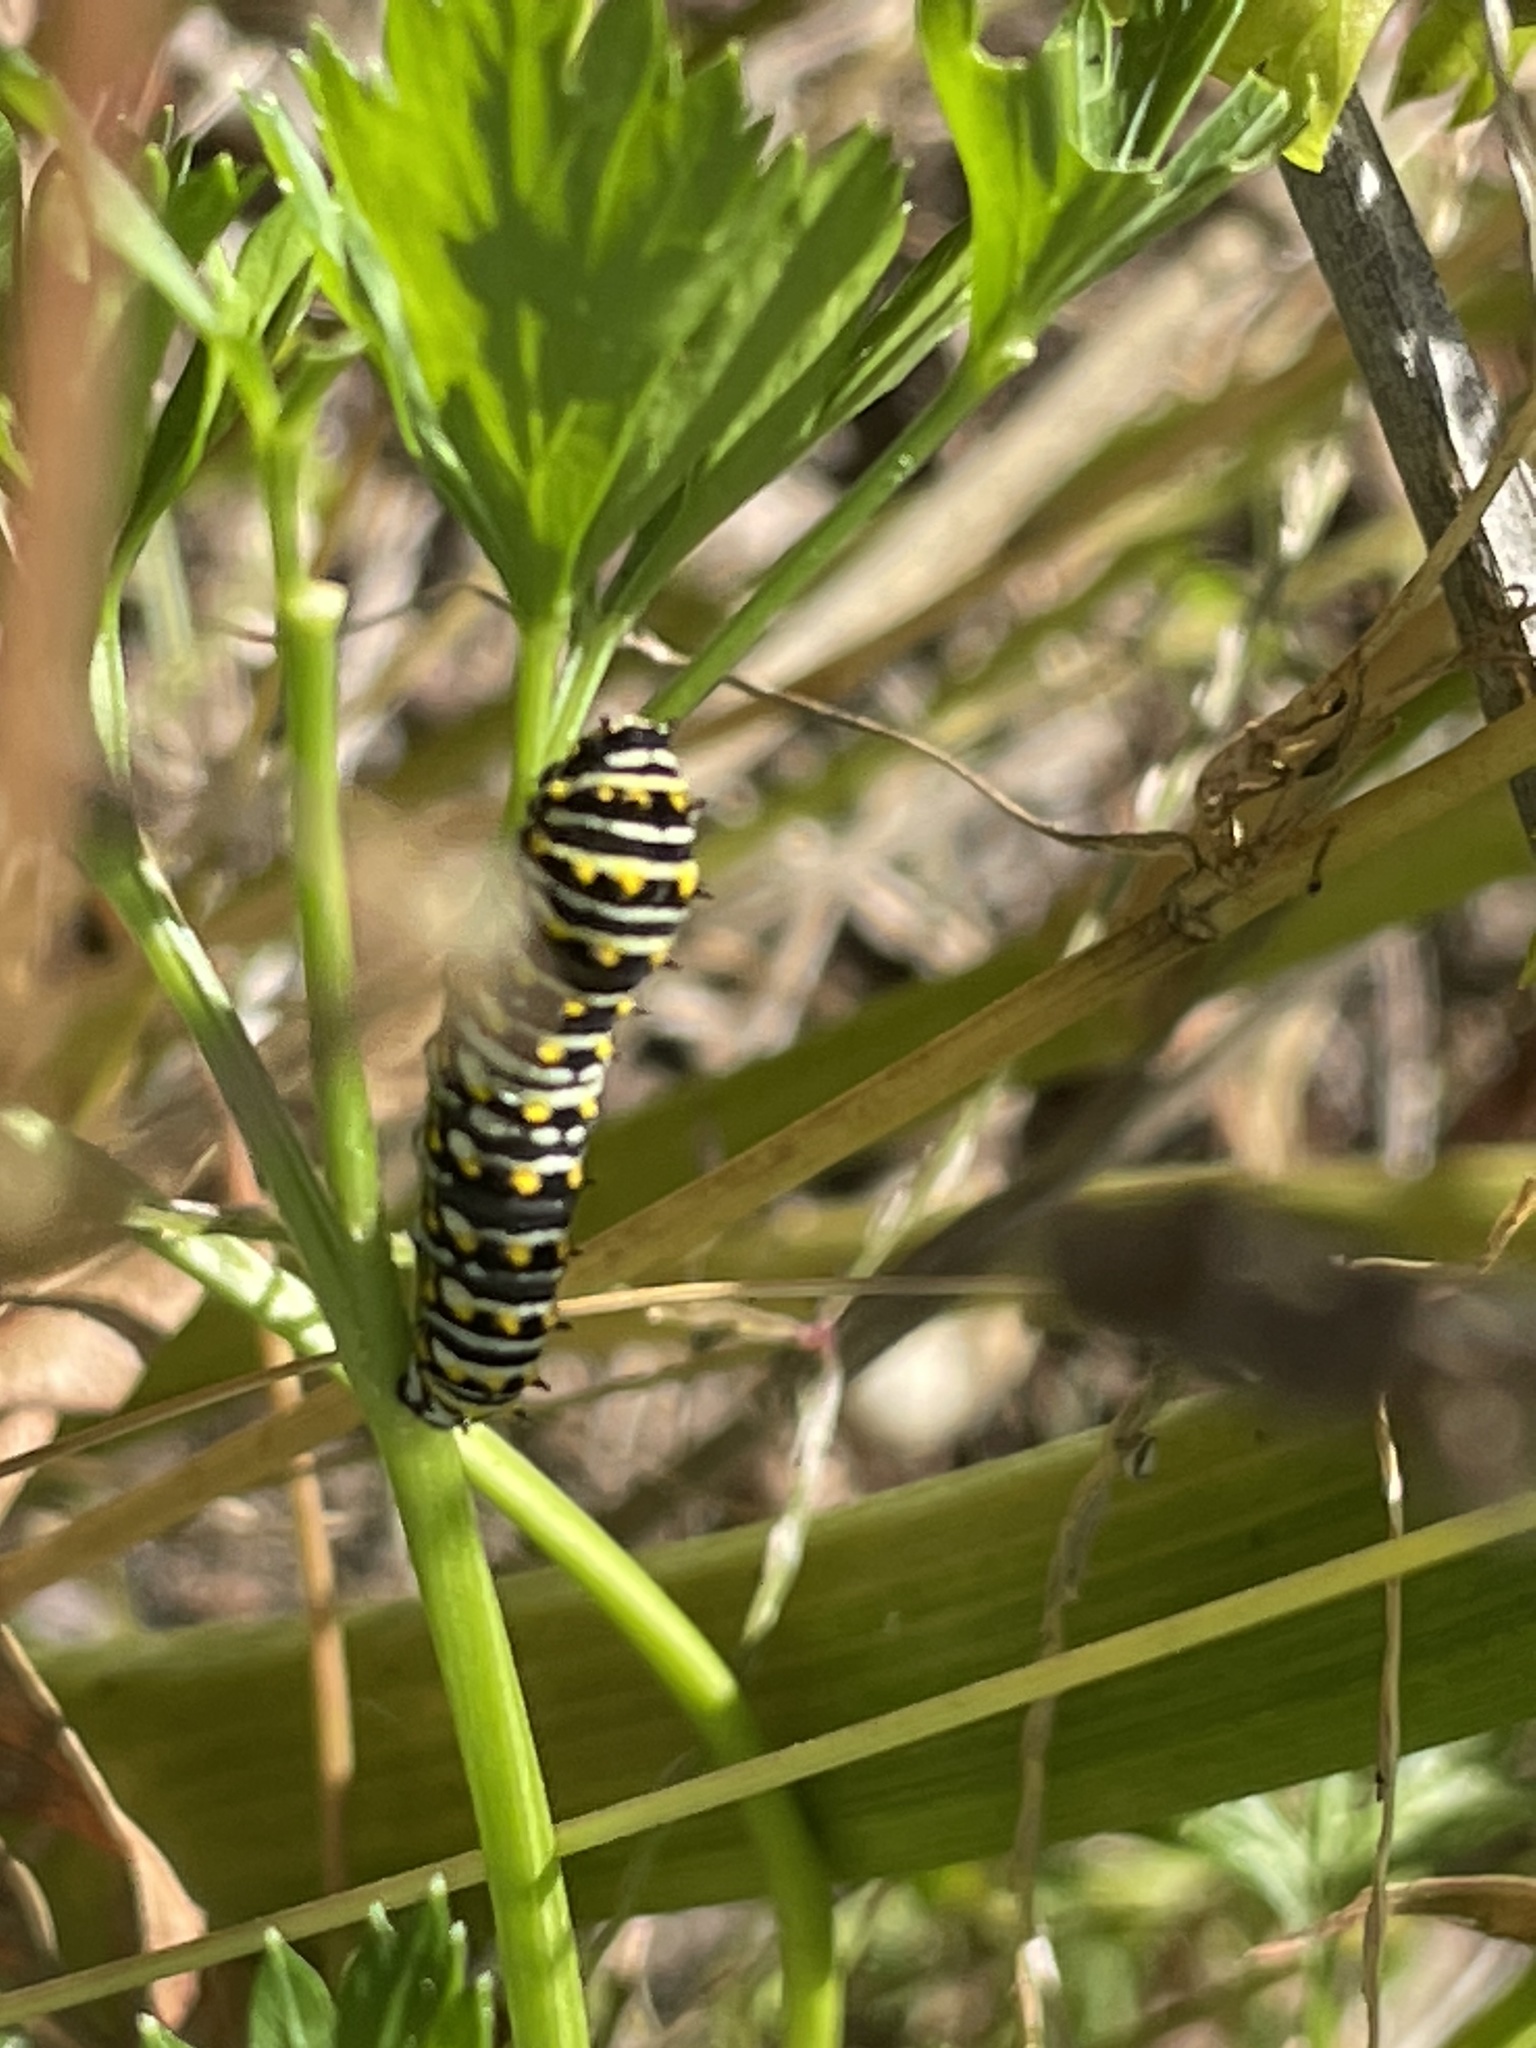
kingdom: Animalia
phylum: Arthropoda
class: Insecta
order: Lepidoptera
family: Papilionidae
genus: Papilio
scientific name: Papilio polyxenes
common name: Black swallowtail
